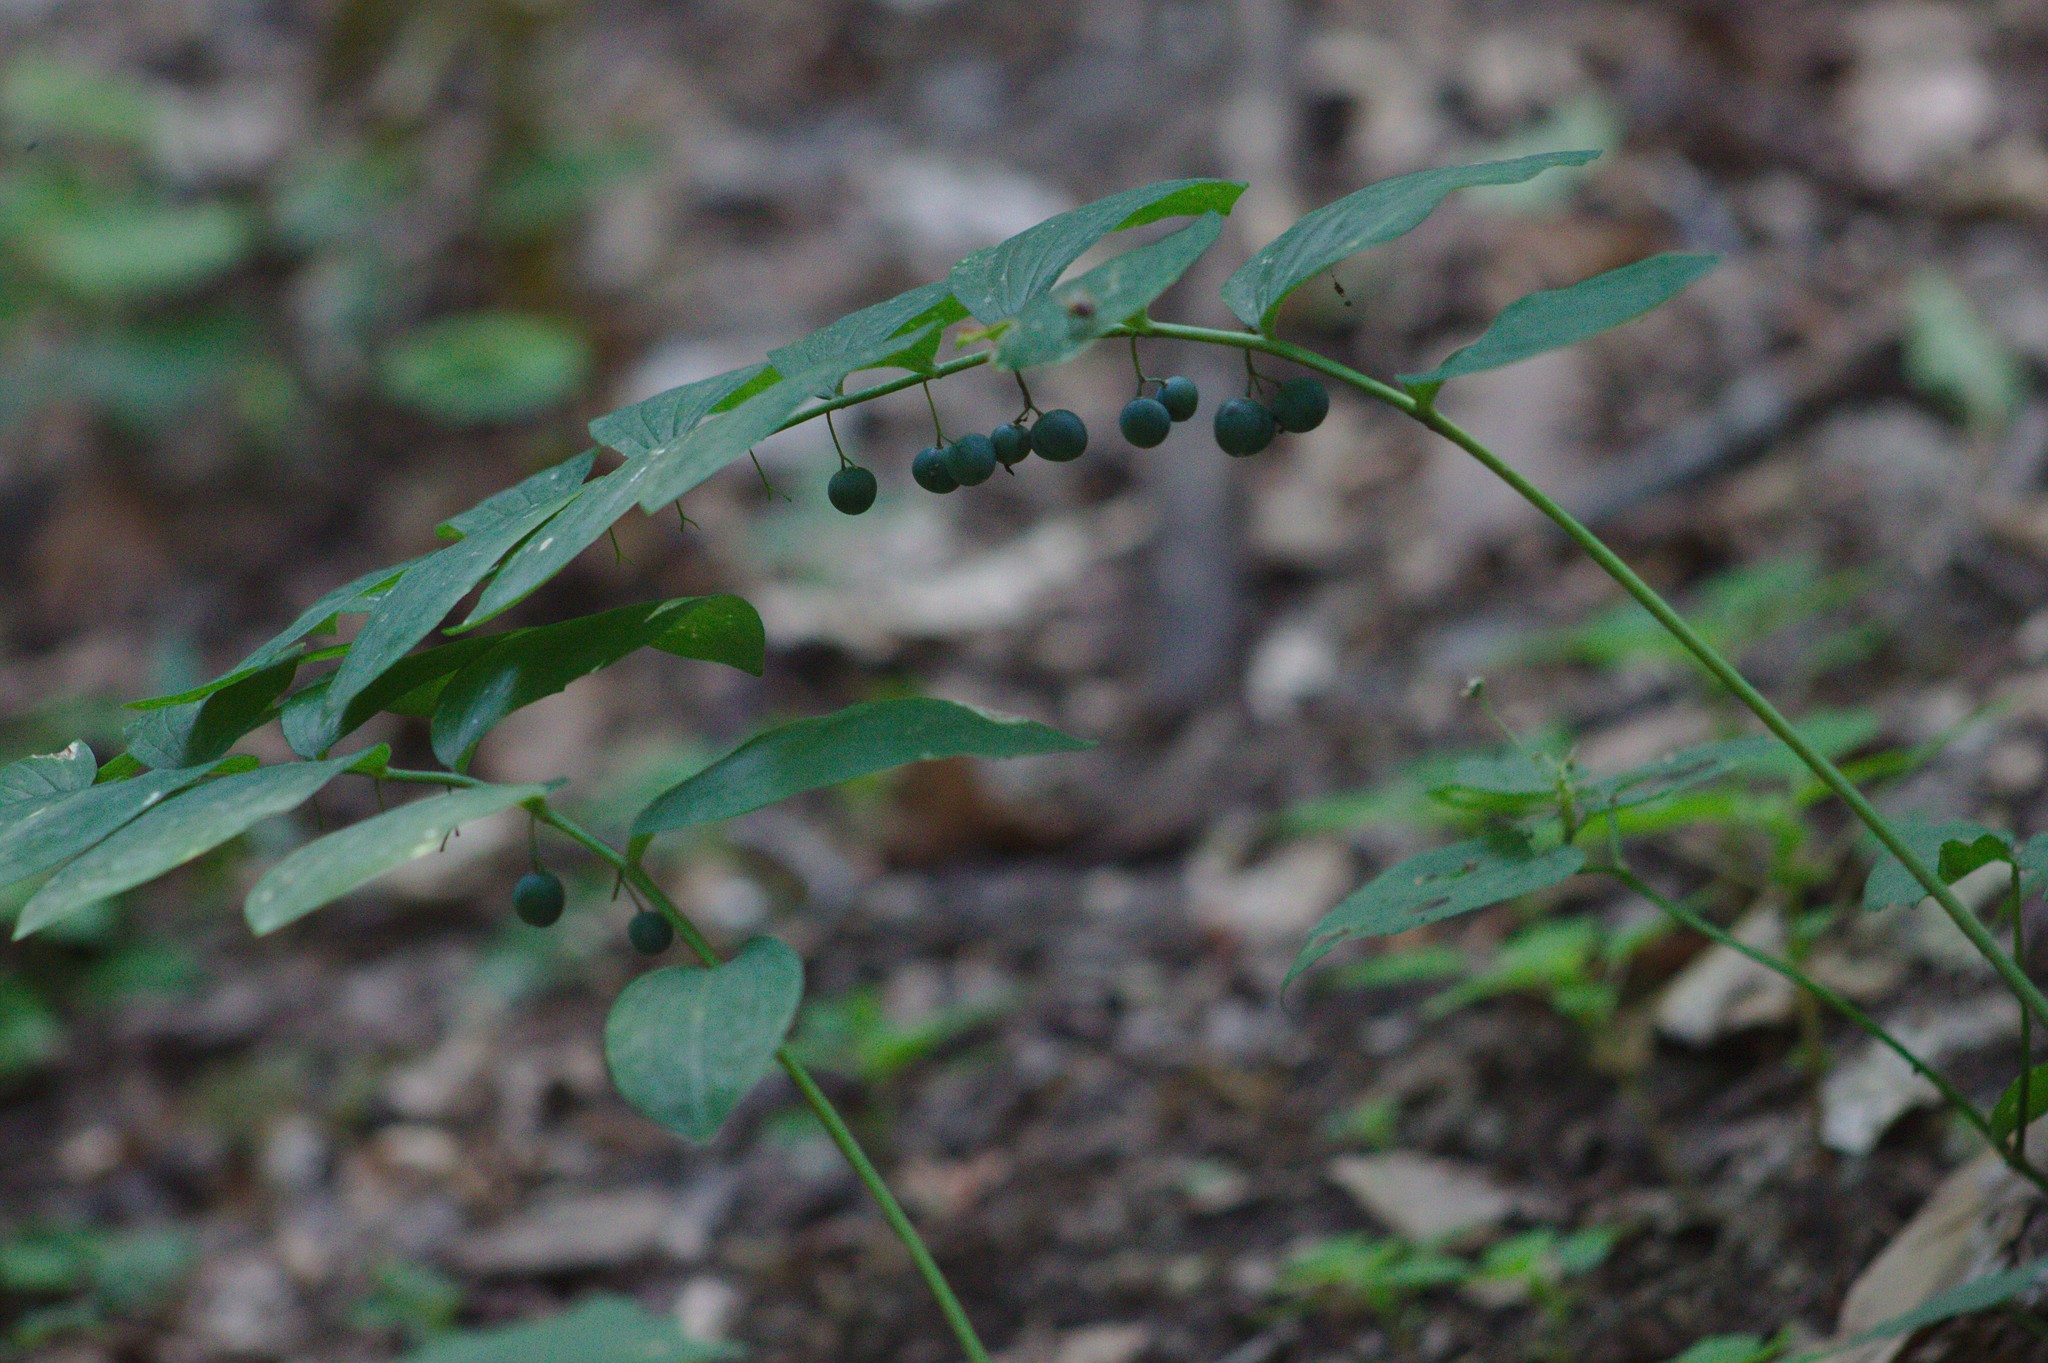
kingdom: Plantae
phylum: Tracheophyta
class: Liliopsida
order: Asparagales
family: Asparagaceae
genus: Polygonatum
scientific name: Polygonatum pubescens
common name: Downy solomon's seal
